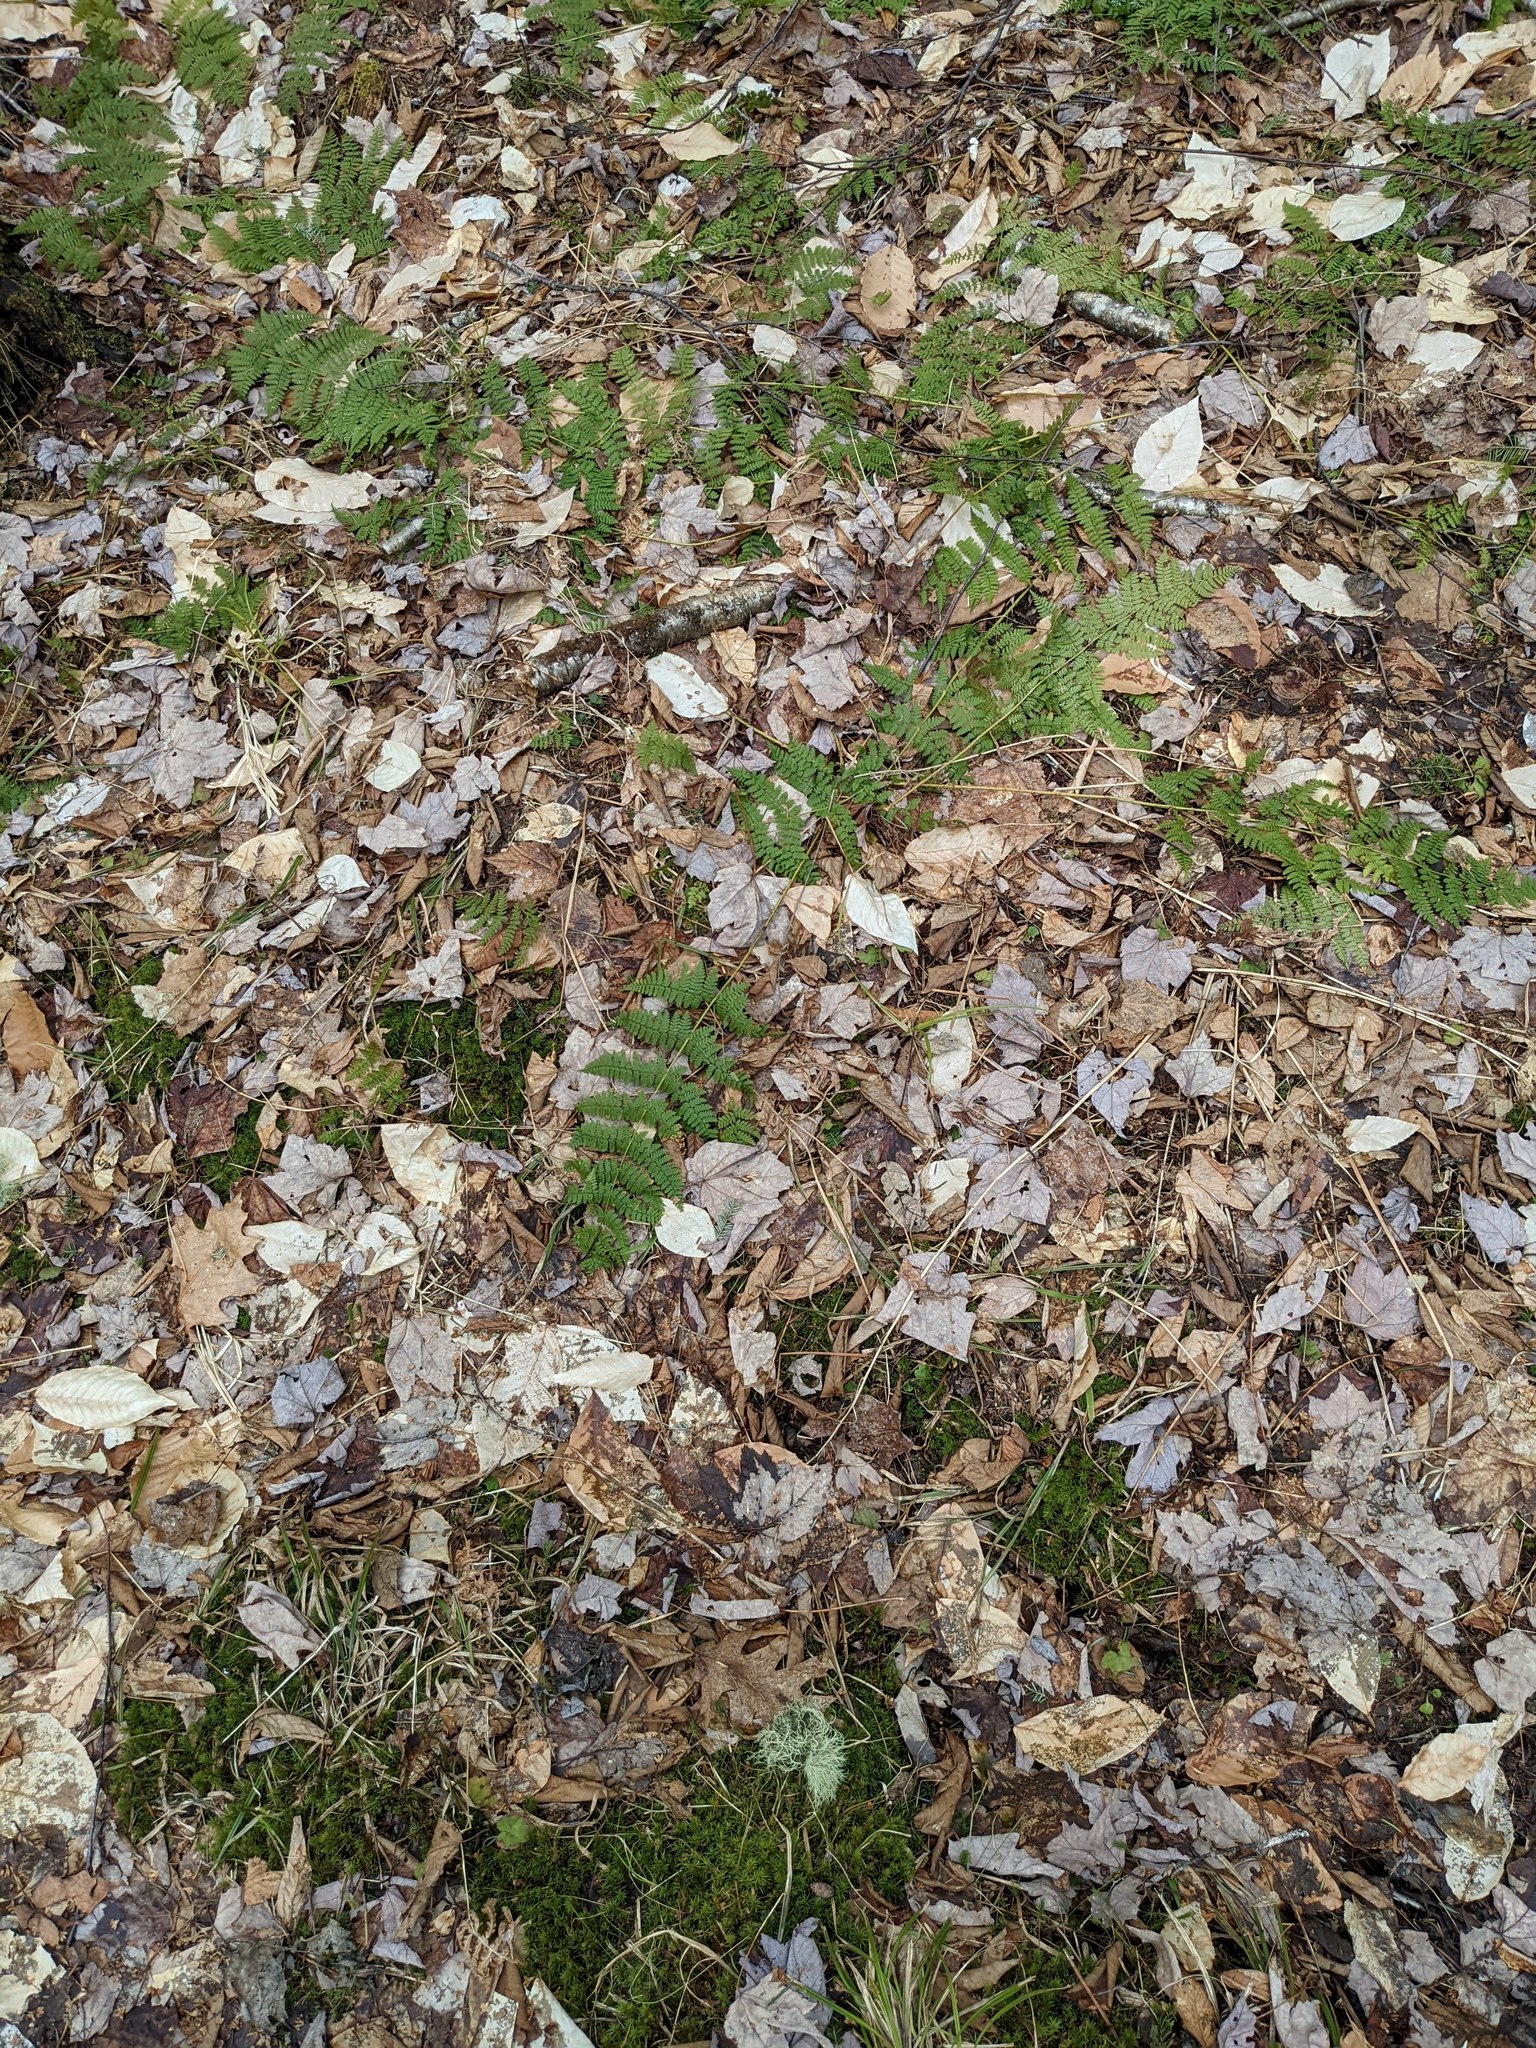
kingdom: Plantae
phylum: Tracheophyta
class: Polypodiopsida
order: Polypodiales
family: Dryopteridaceae
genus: Dryopteris
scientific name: Dryopteris intermedia
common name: Evergreen wood fern
